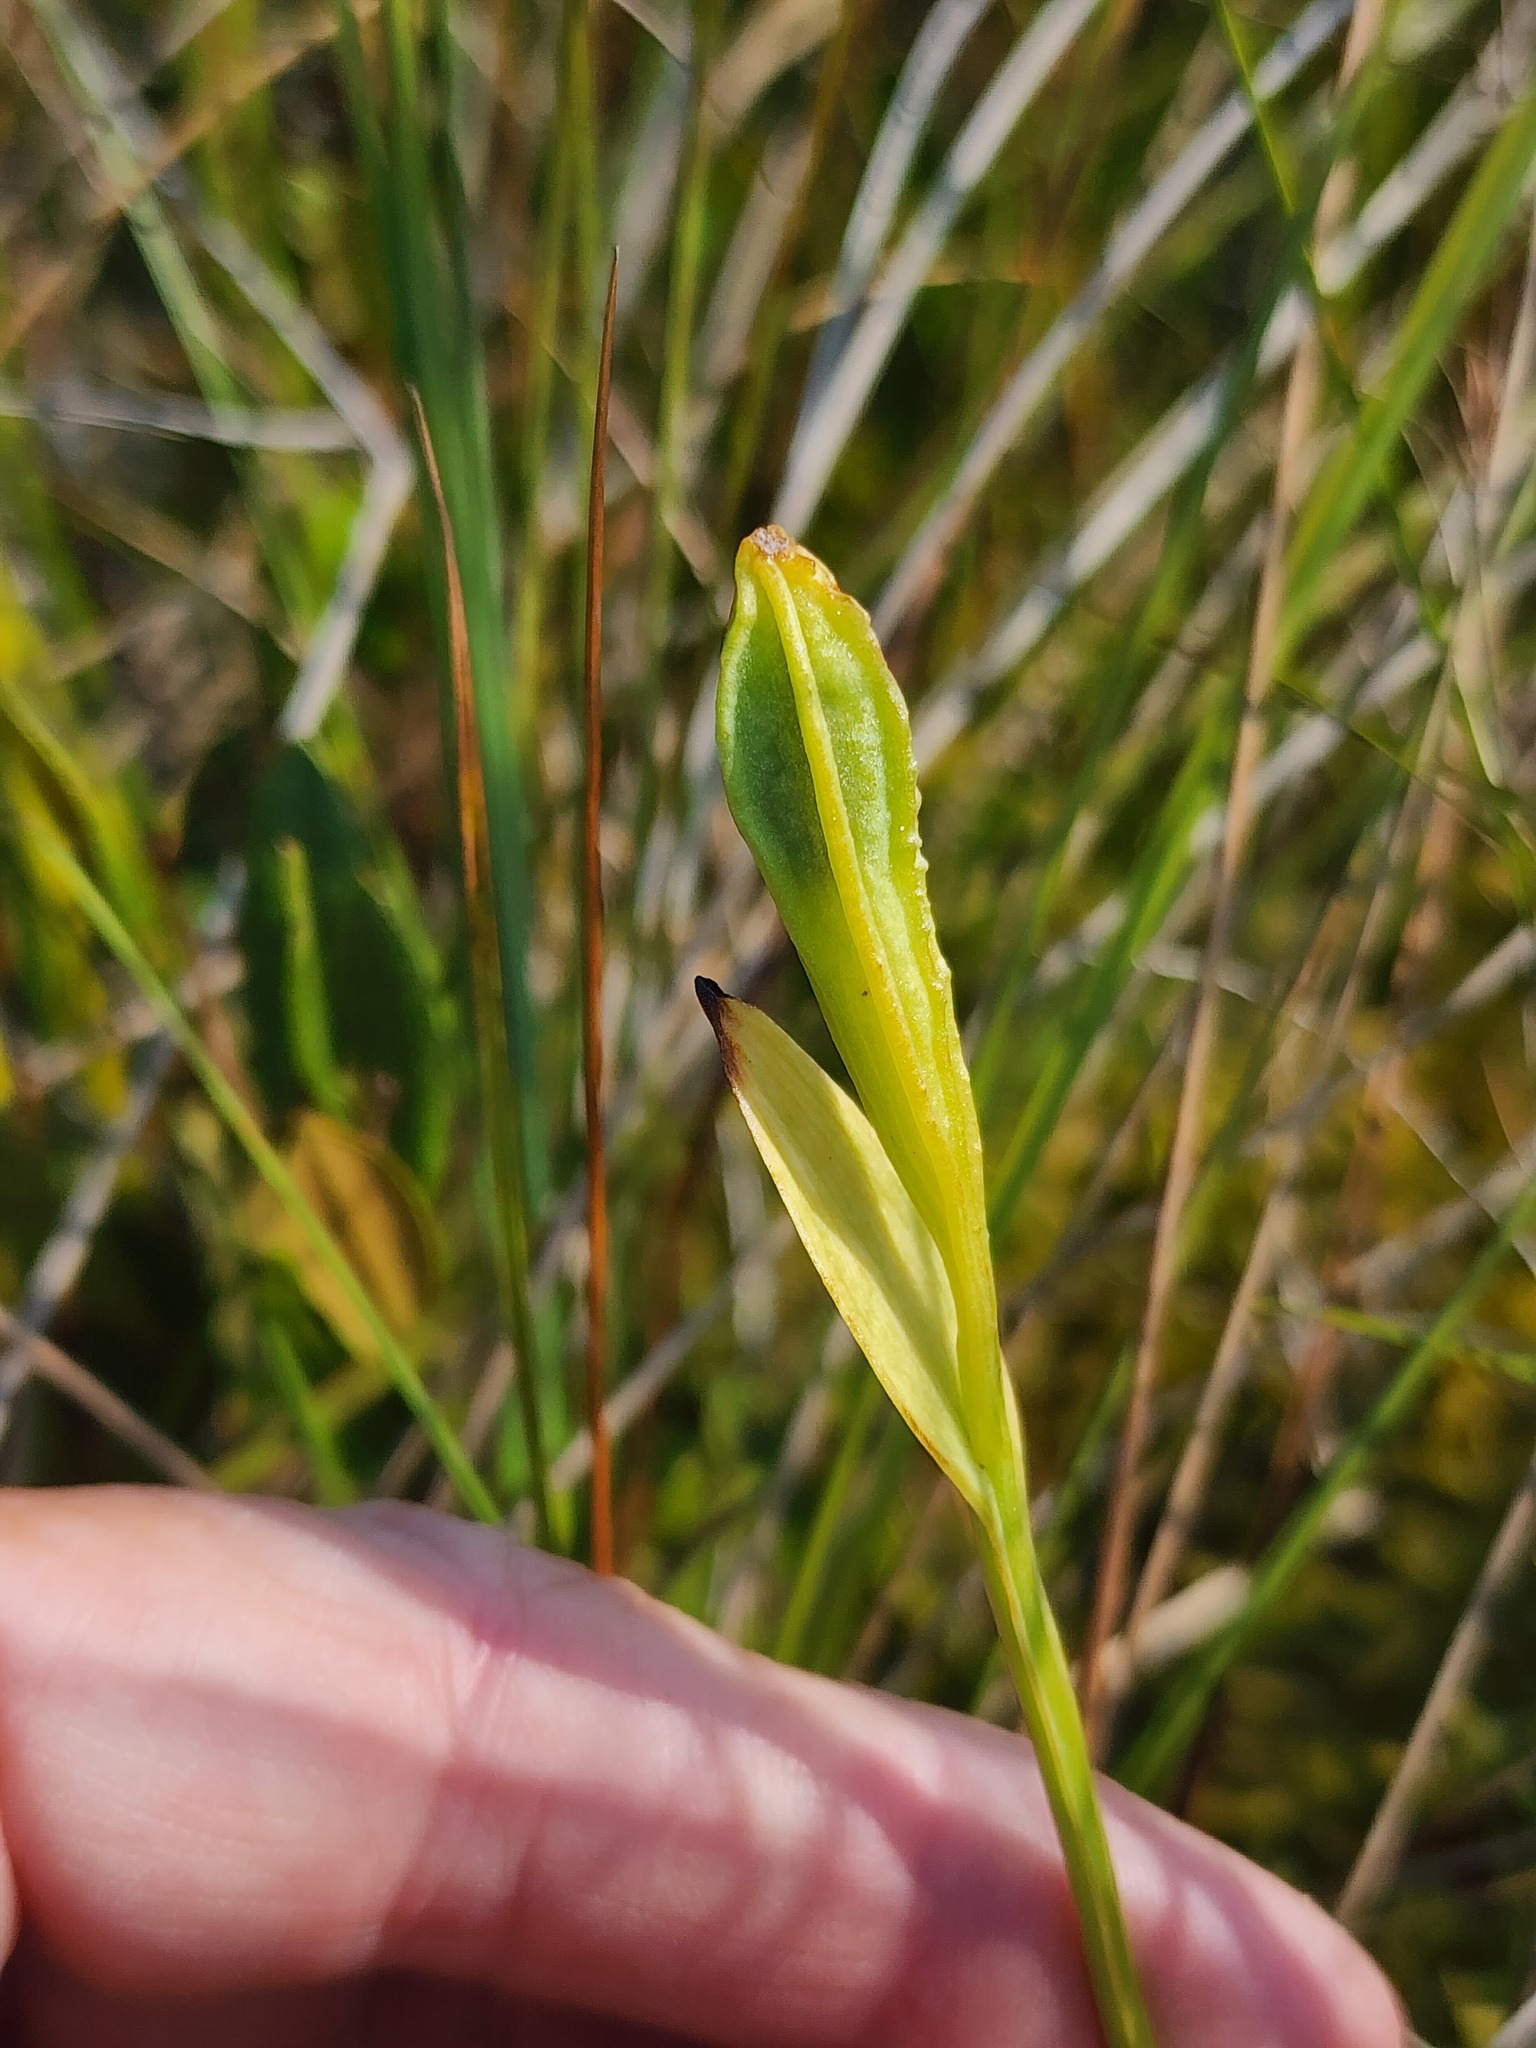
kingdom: Plantae
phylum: Tracheophyta
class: Liliopsida
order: Asparagales
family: Orchidaceae
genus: Pogonia
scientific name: Pogonia ophioglossoides
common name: Rose pogonia
